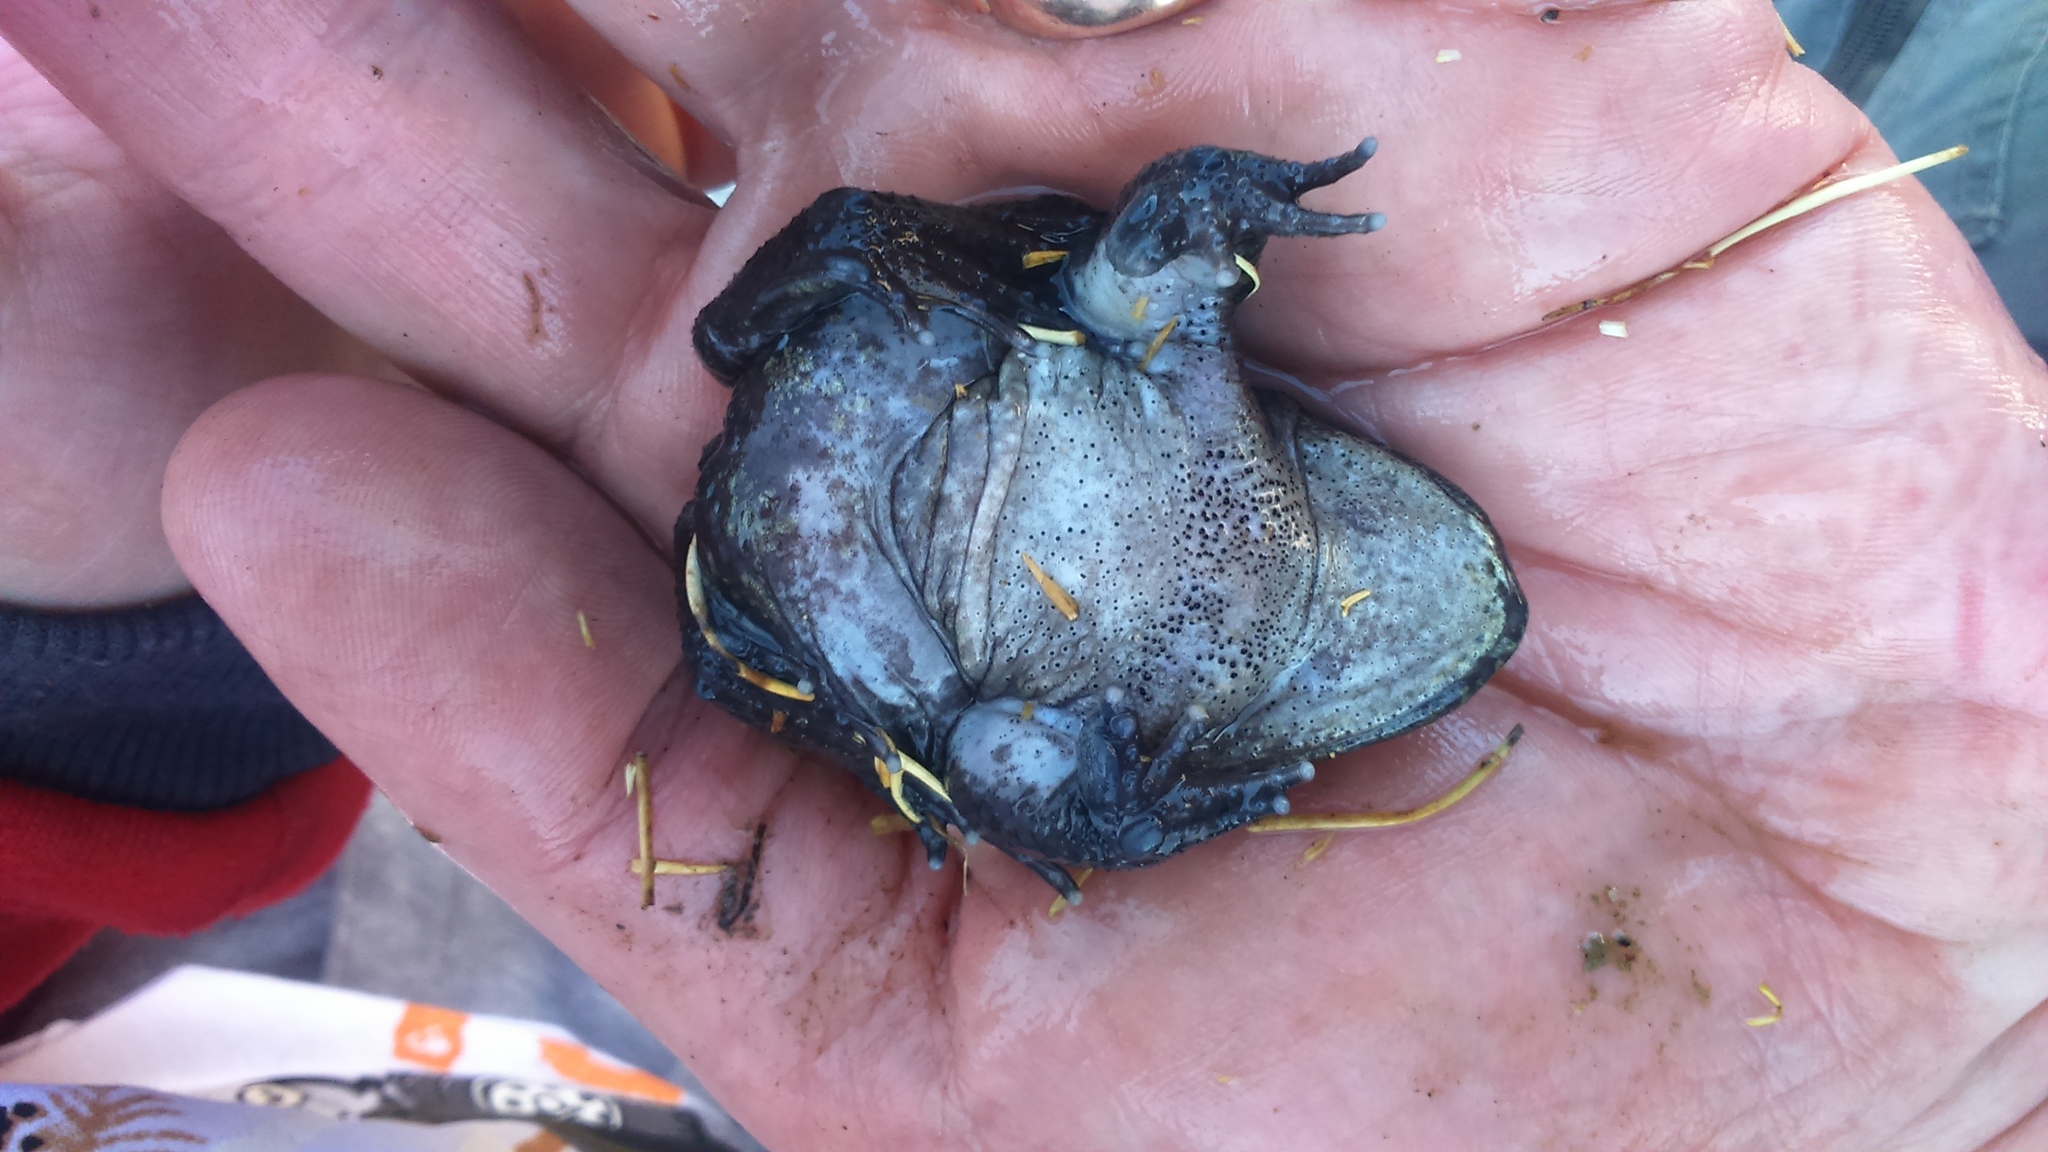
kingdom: Animalia
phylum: Chordata
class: Amphibia
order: Anura
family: Telmatobiidae
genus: Telmatobius
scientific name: Telmatobius arequipensis
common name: Chili river water frog
